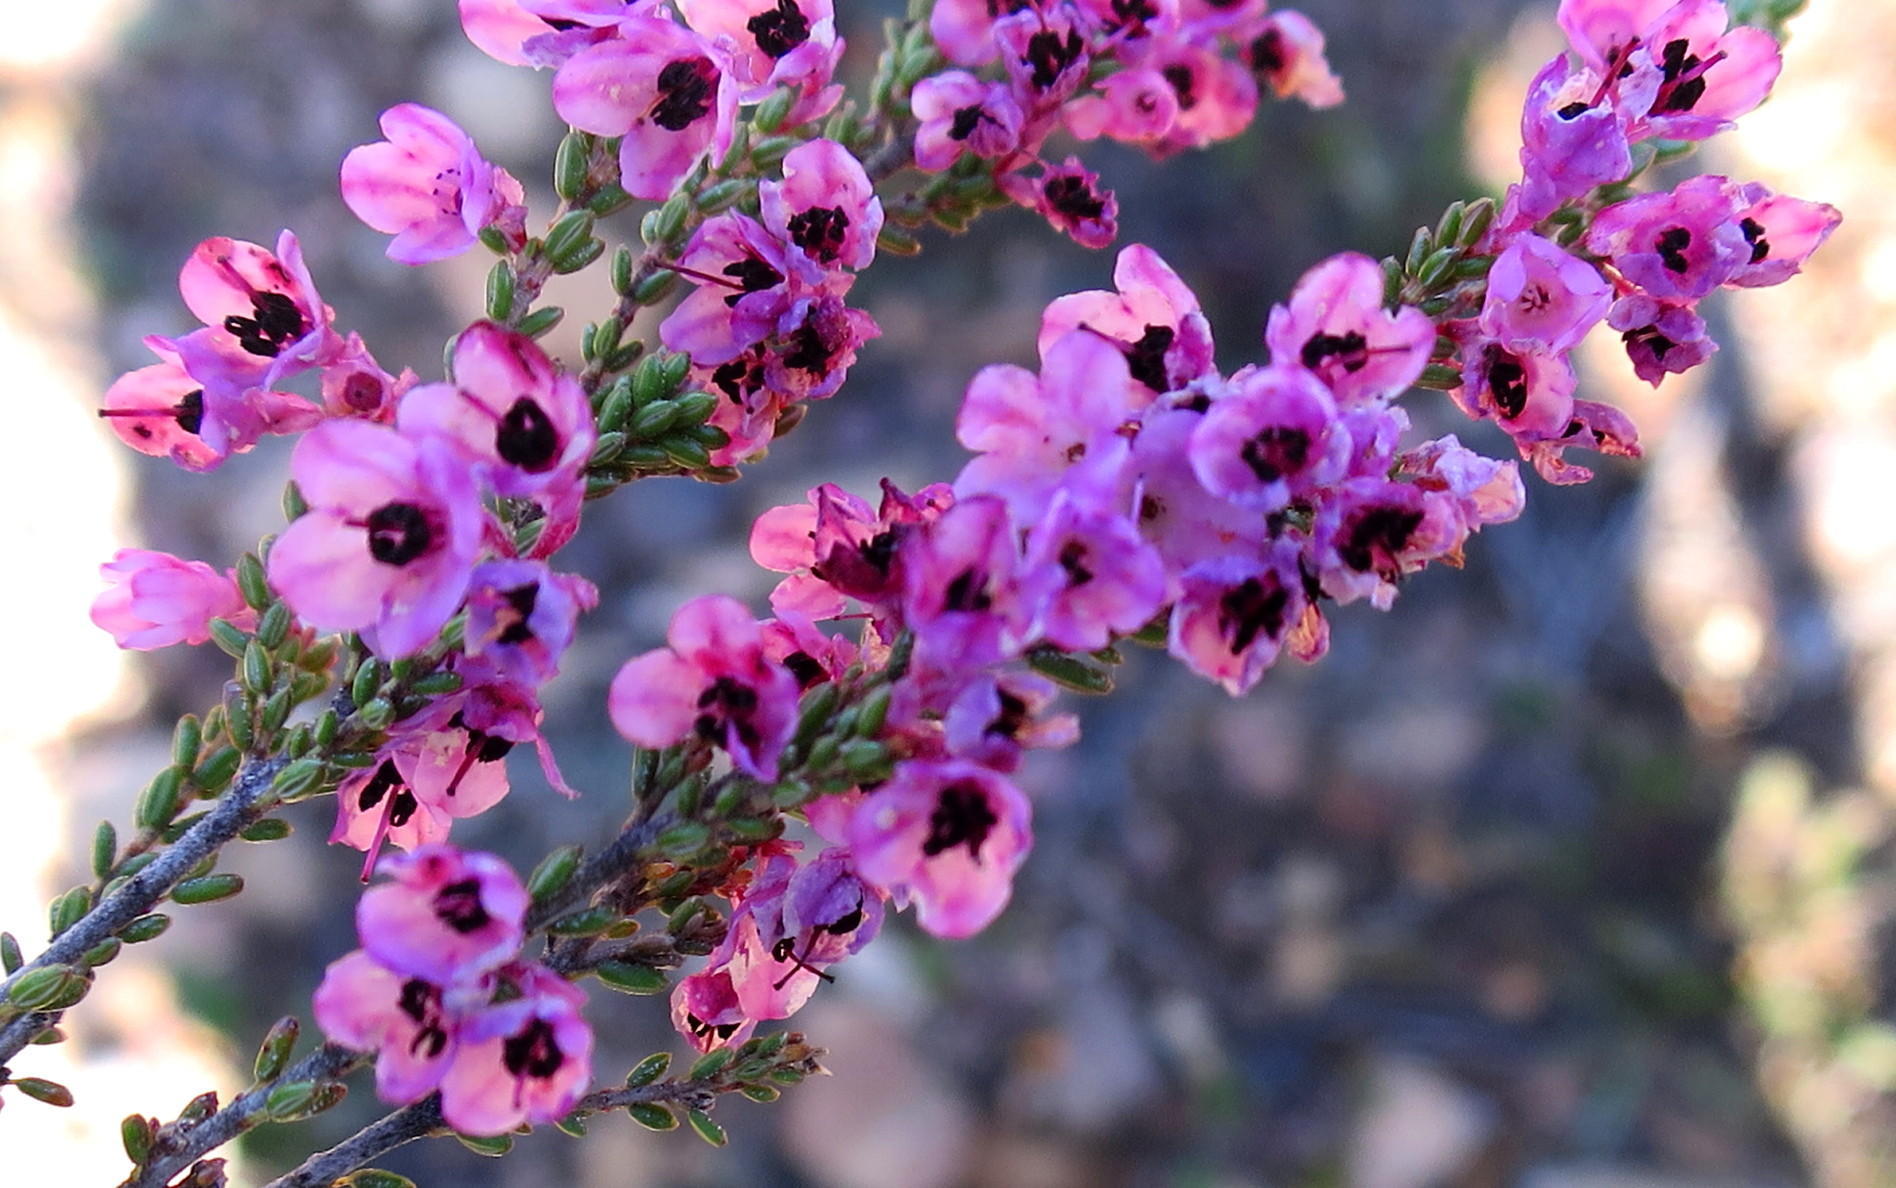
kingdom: Plantae
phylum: Tracheophyta
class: Magnoliopsida
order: Ericales
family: Ericaceae
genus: Erica
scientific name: Erica newdigatei
